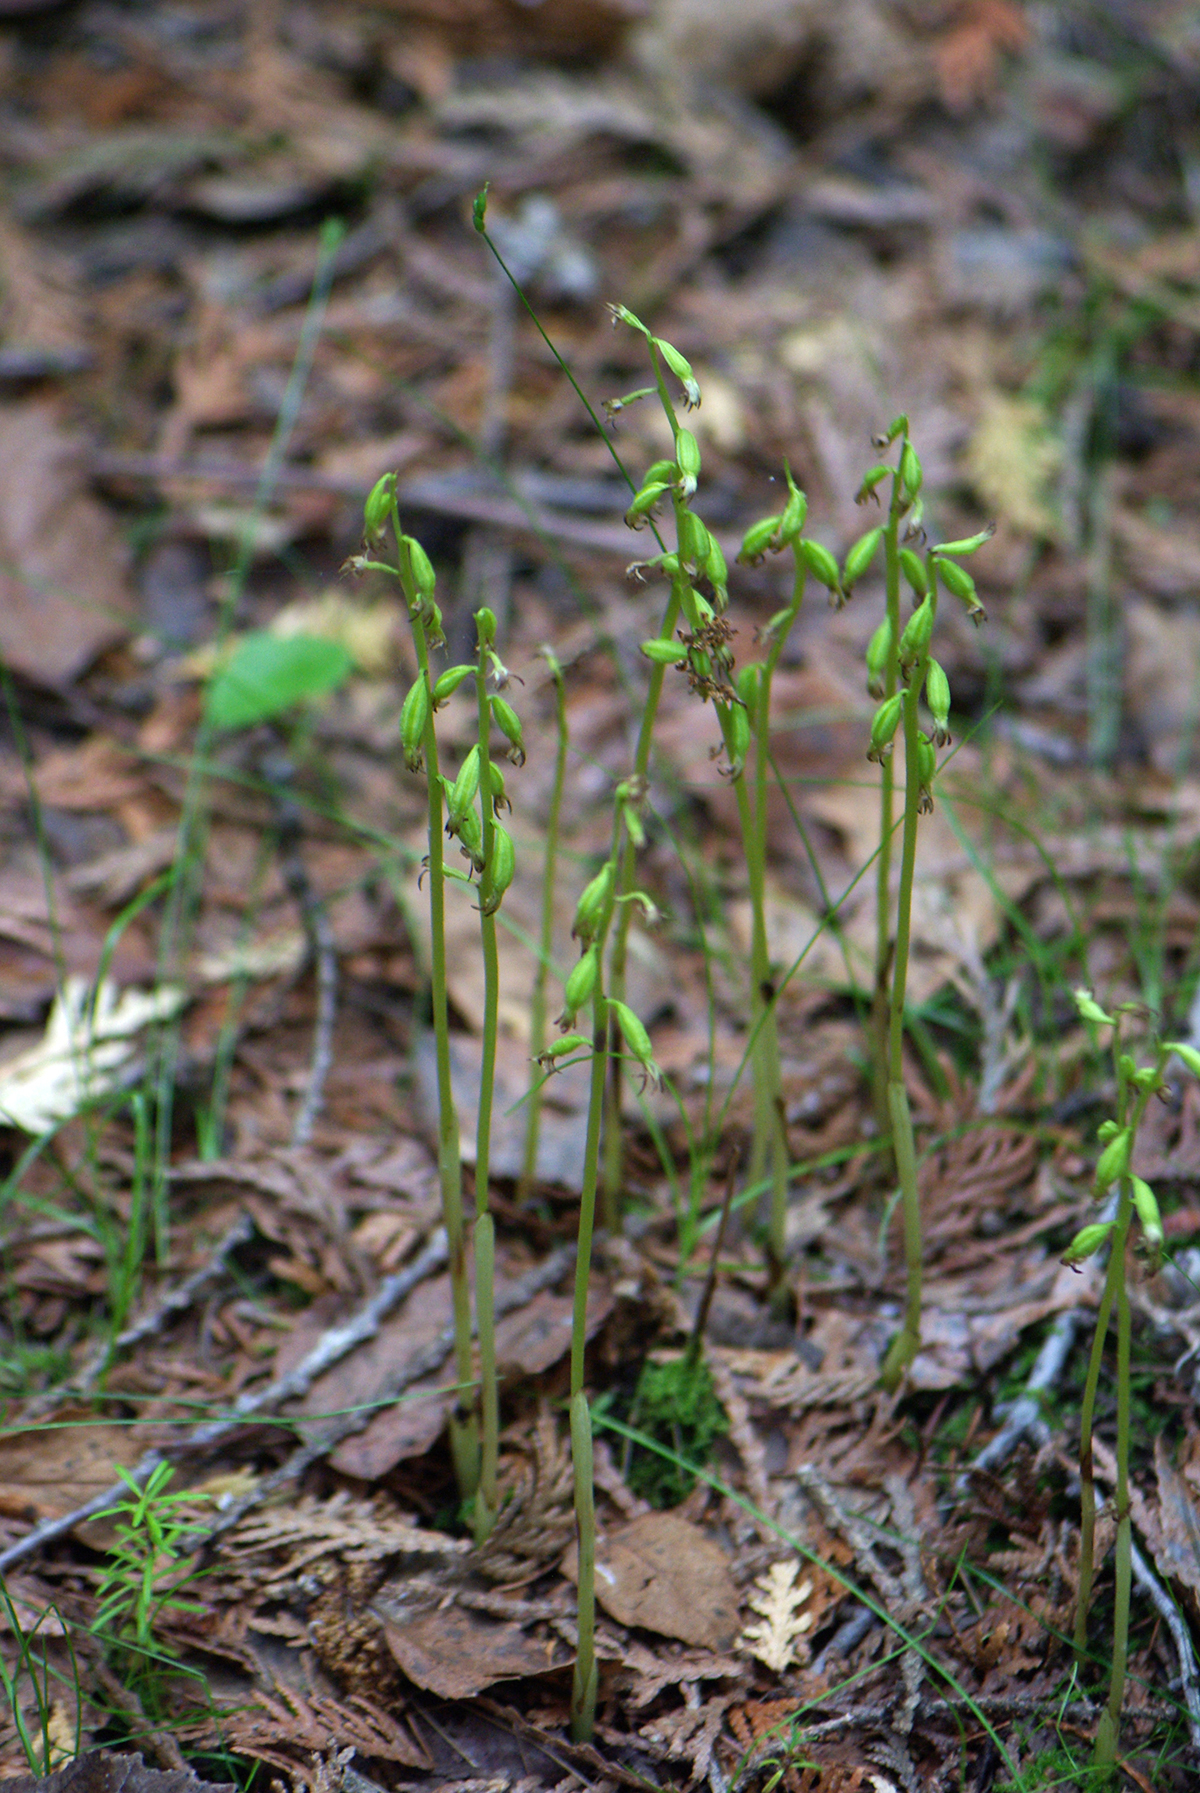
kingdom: Plantae
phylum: Tracheophyta
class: Liliopsida
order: Asparagales
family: Orchidaceae
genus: Corallorhiza
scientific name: Corallorhiza trifida
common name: Yellow coralroot
